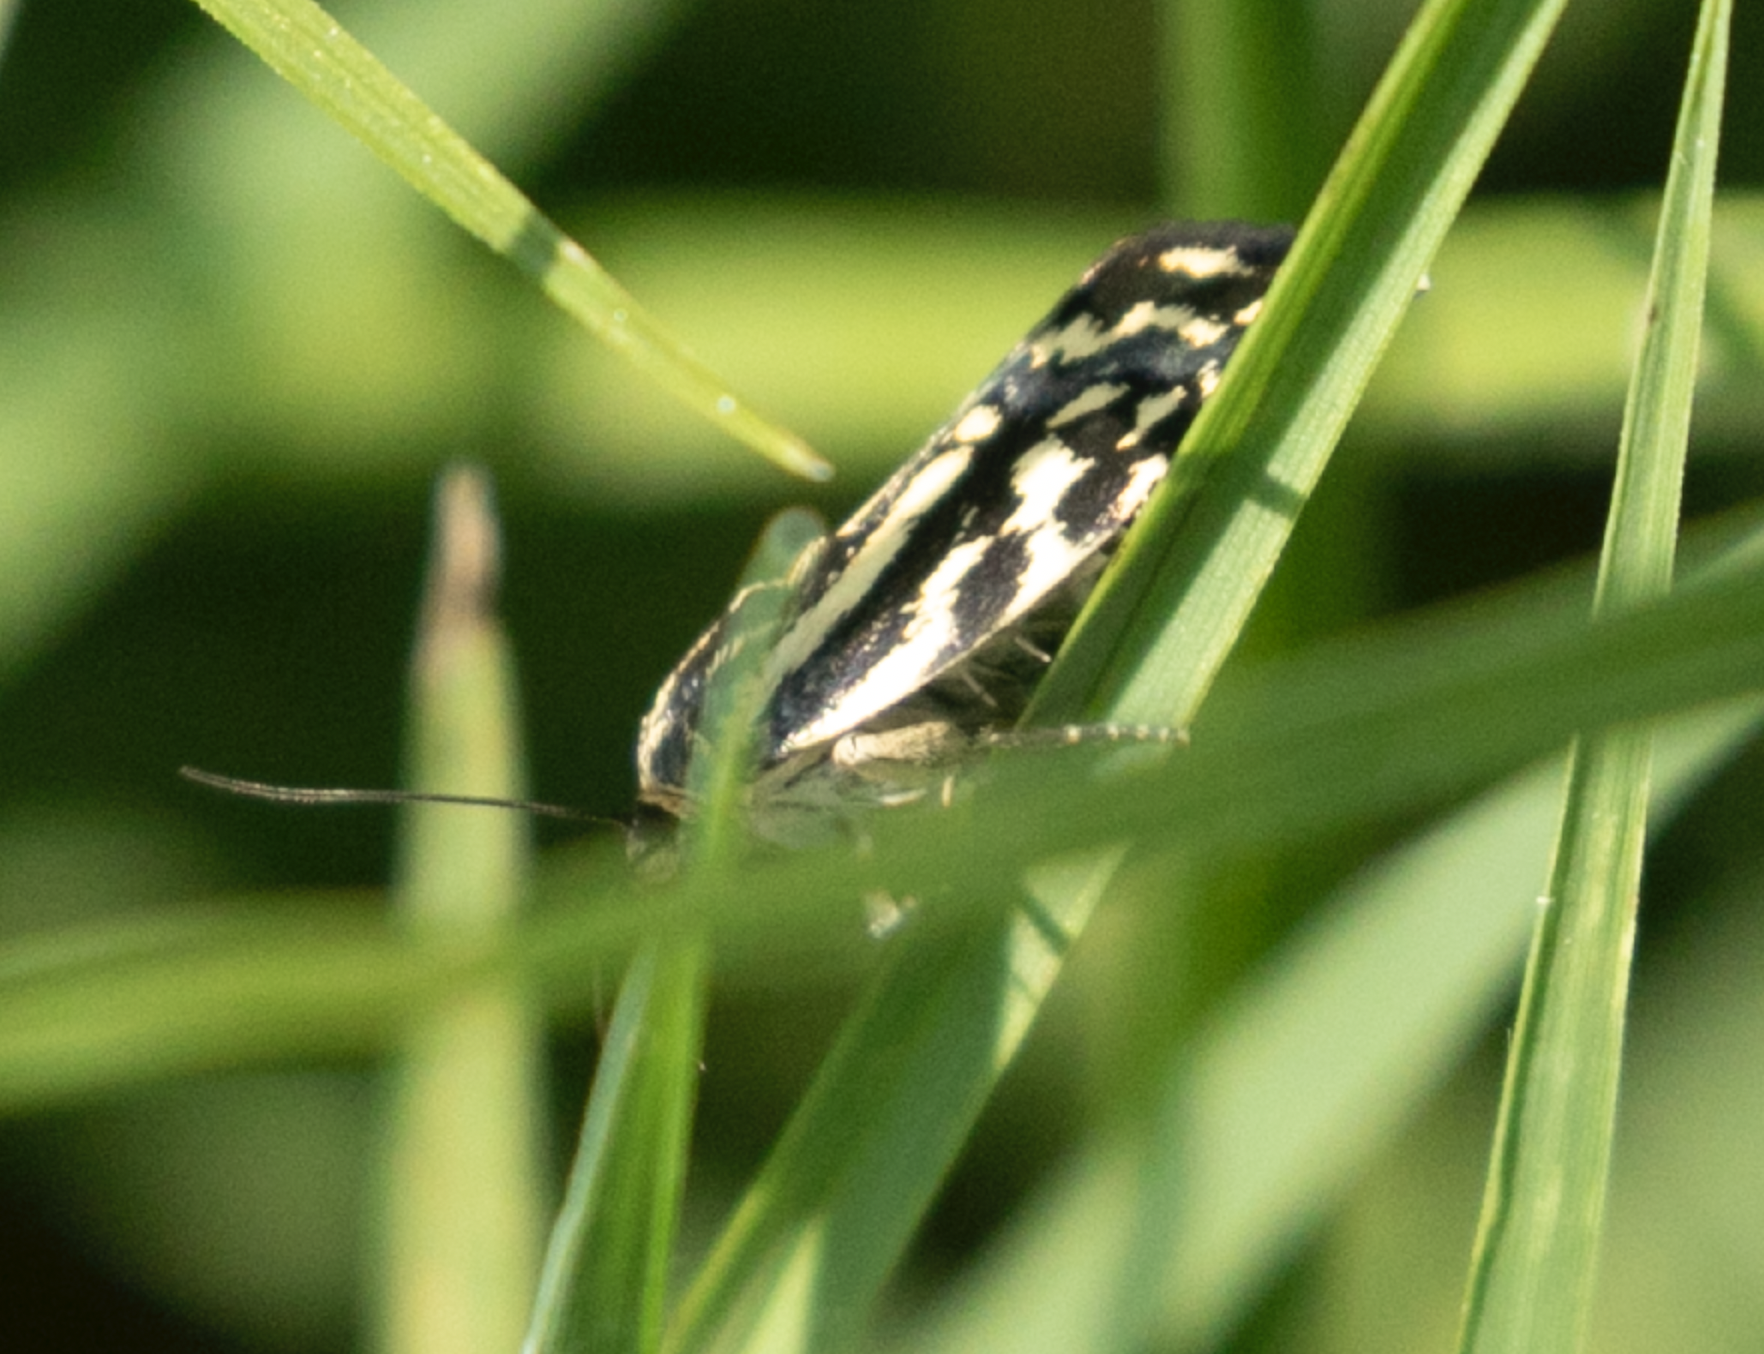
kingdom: Animalia
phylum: Arthropoda
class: Insecta
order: Lepidoptera
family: Noctuidae
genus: Acontia
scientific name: Acontia trabealis
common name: Spotted sulphur
